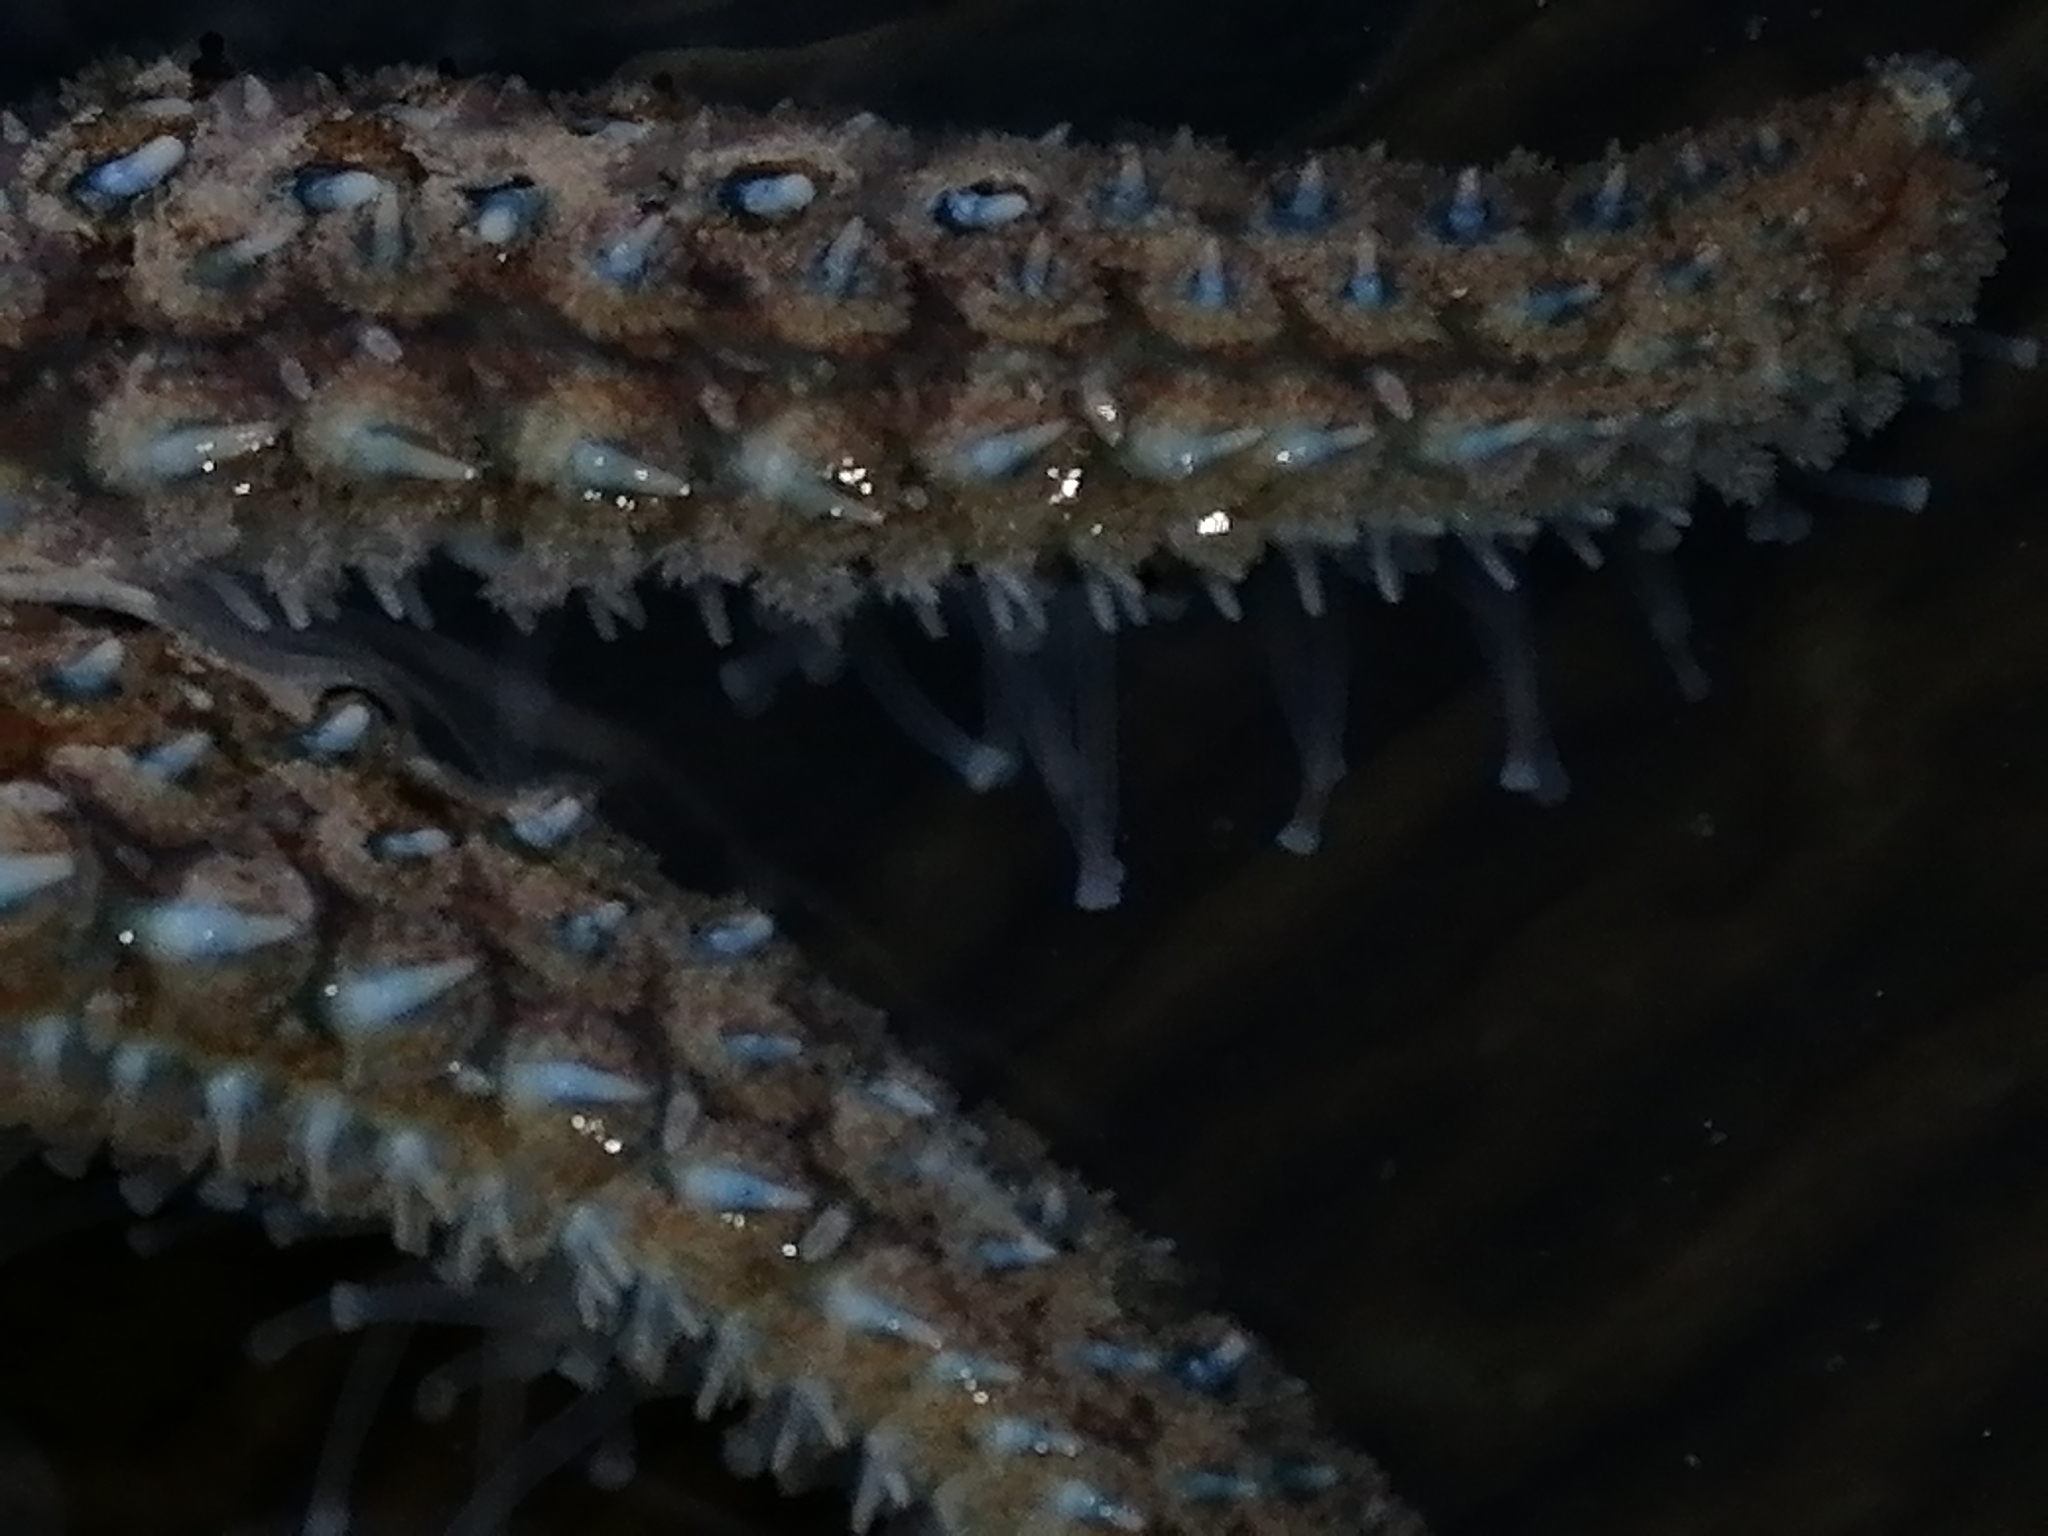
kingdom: Animalia
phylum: Echinodermata
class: Asteroidea
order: Forcipulatida
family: Asteriidae
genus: Coscinasterias
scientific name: Coscinasterias muricata
